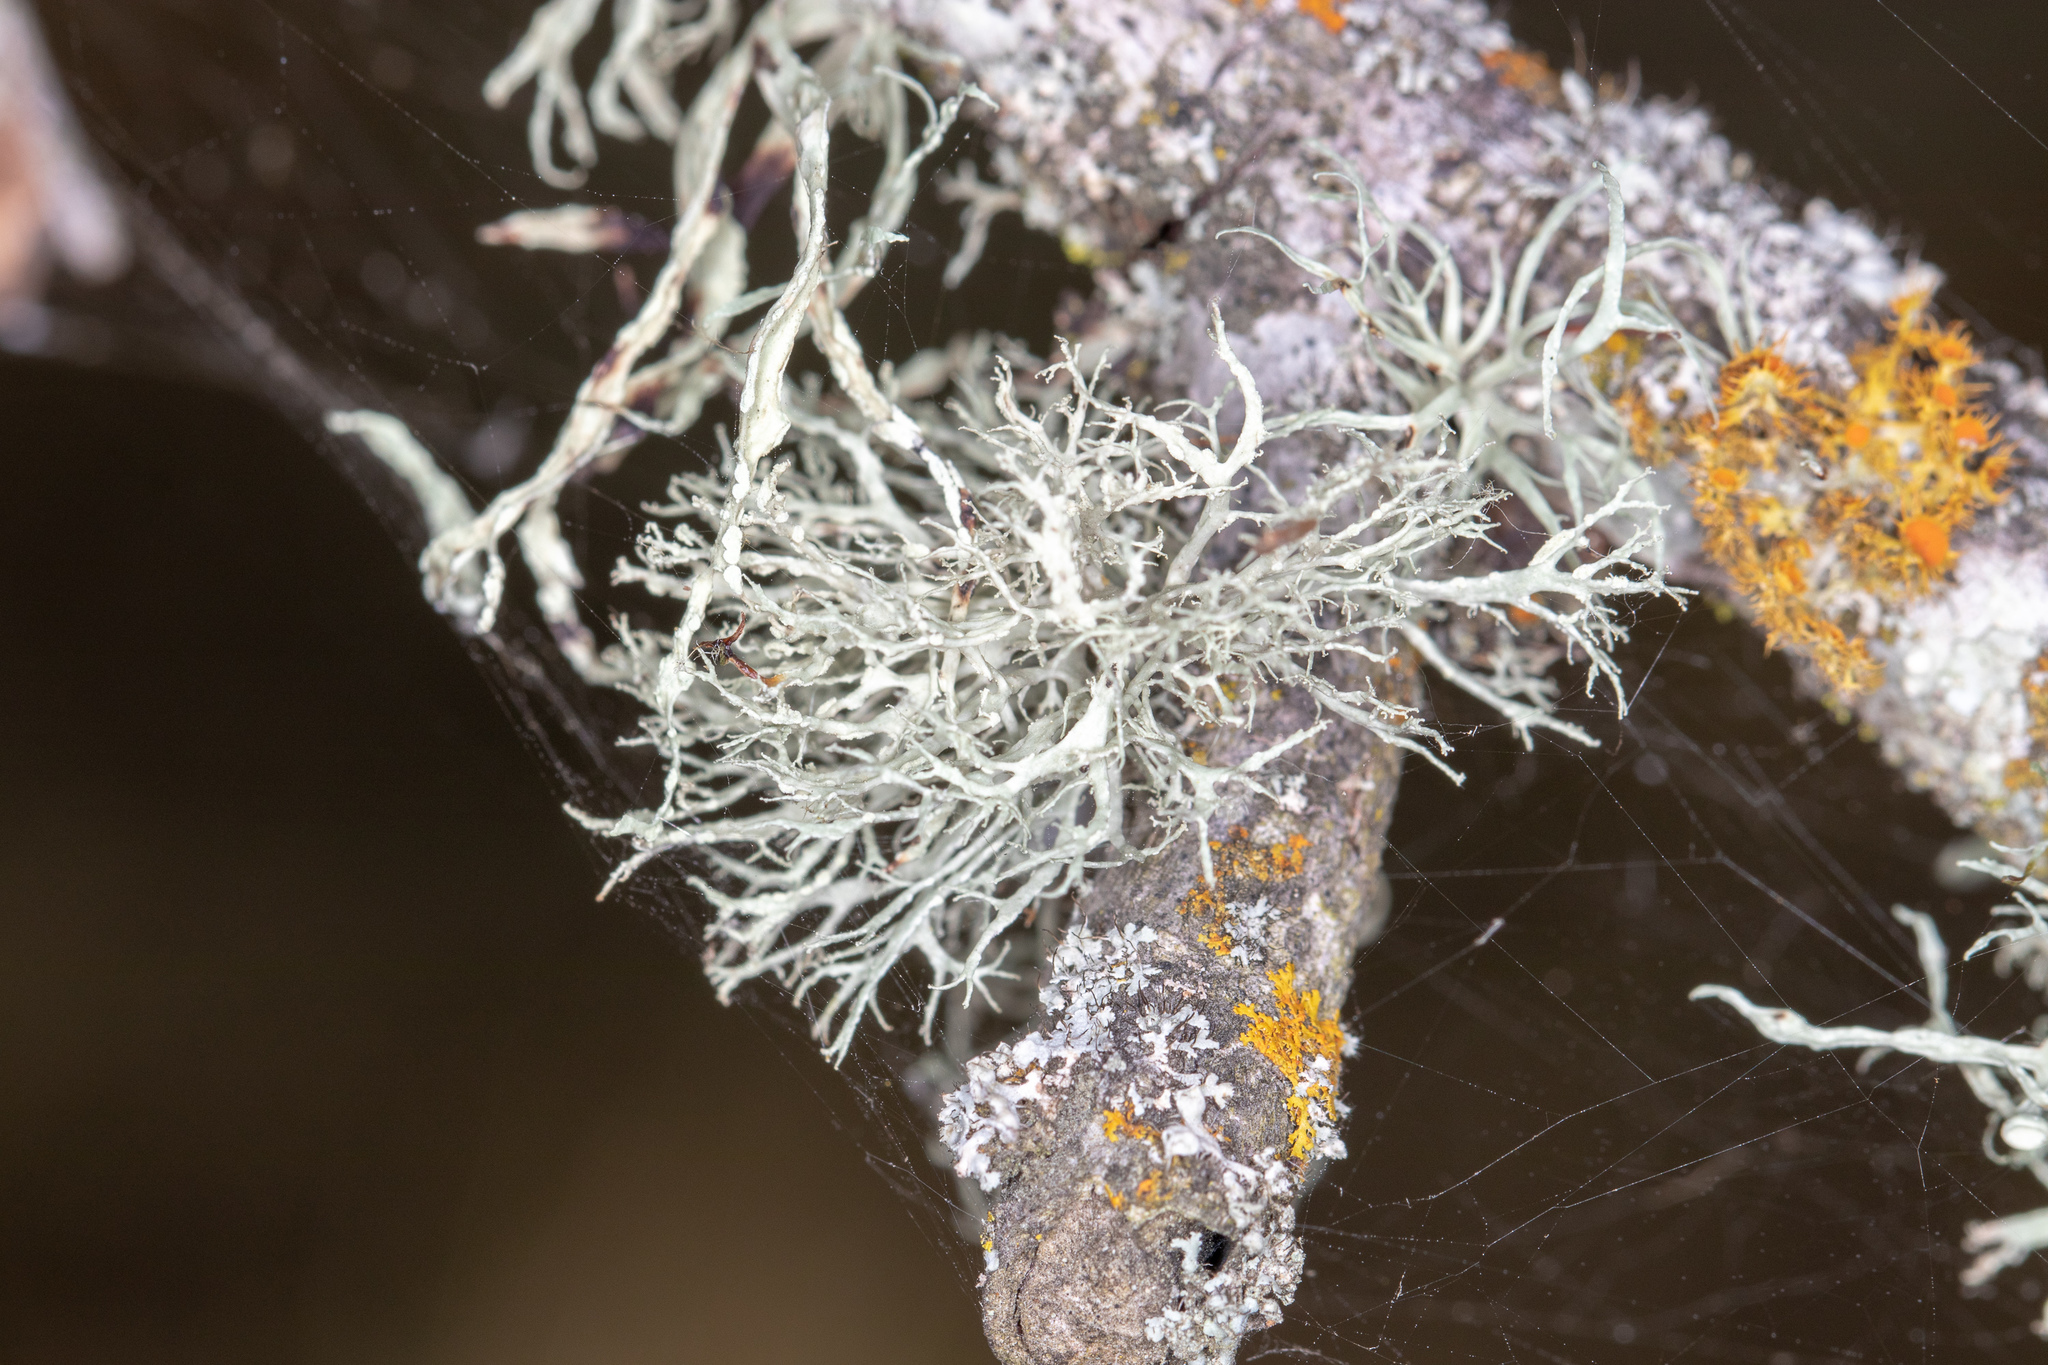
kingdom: Fungi
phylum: Ascomycota
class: Lecanoromycetes
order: Lecanorales
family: Ramalinaceae
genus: Ramalina
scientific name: Ramalina farinacea
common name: Farinose cartilage lichen
